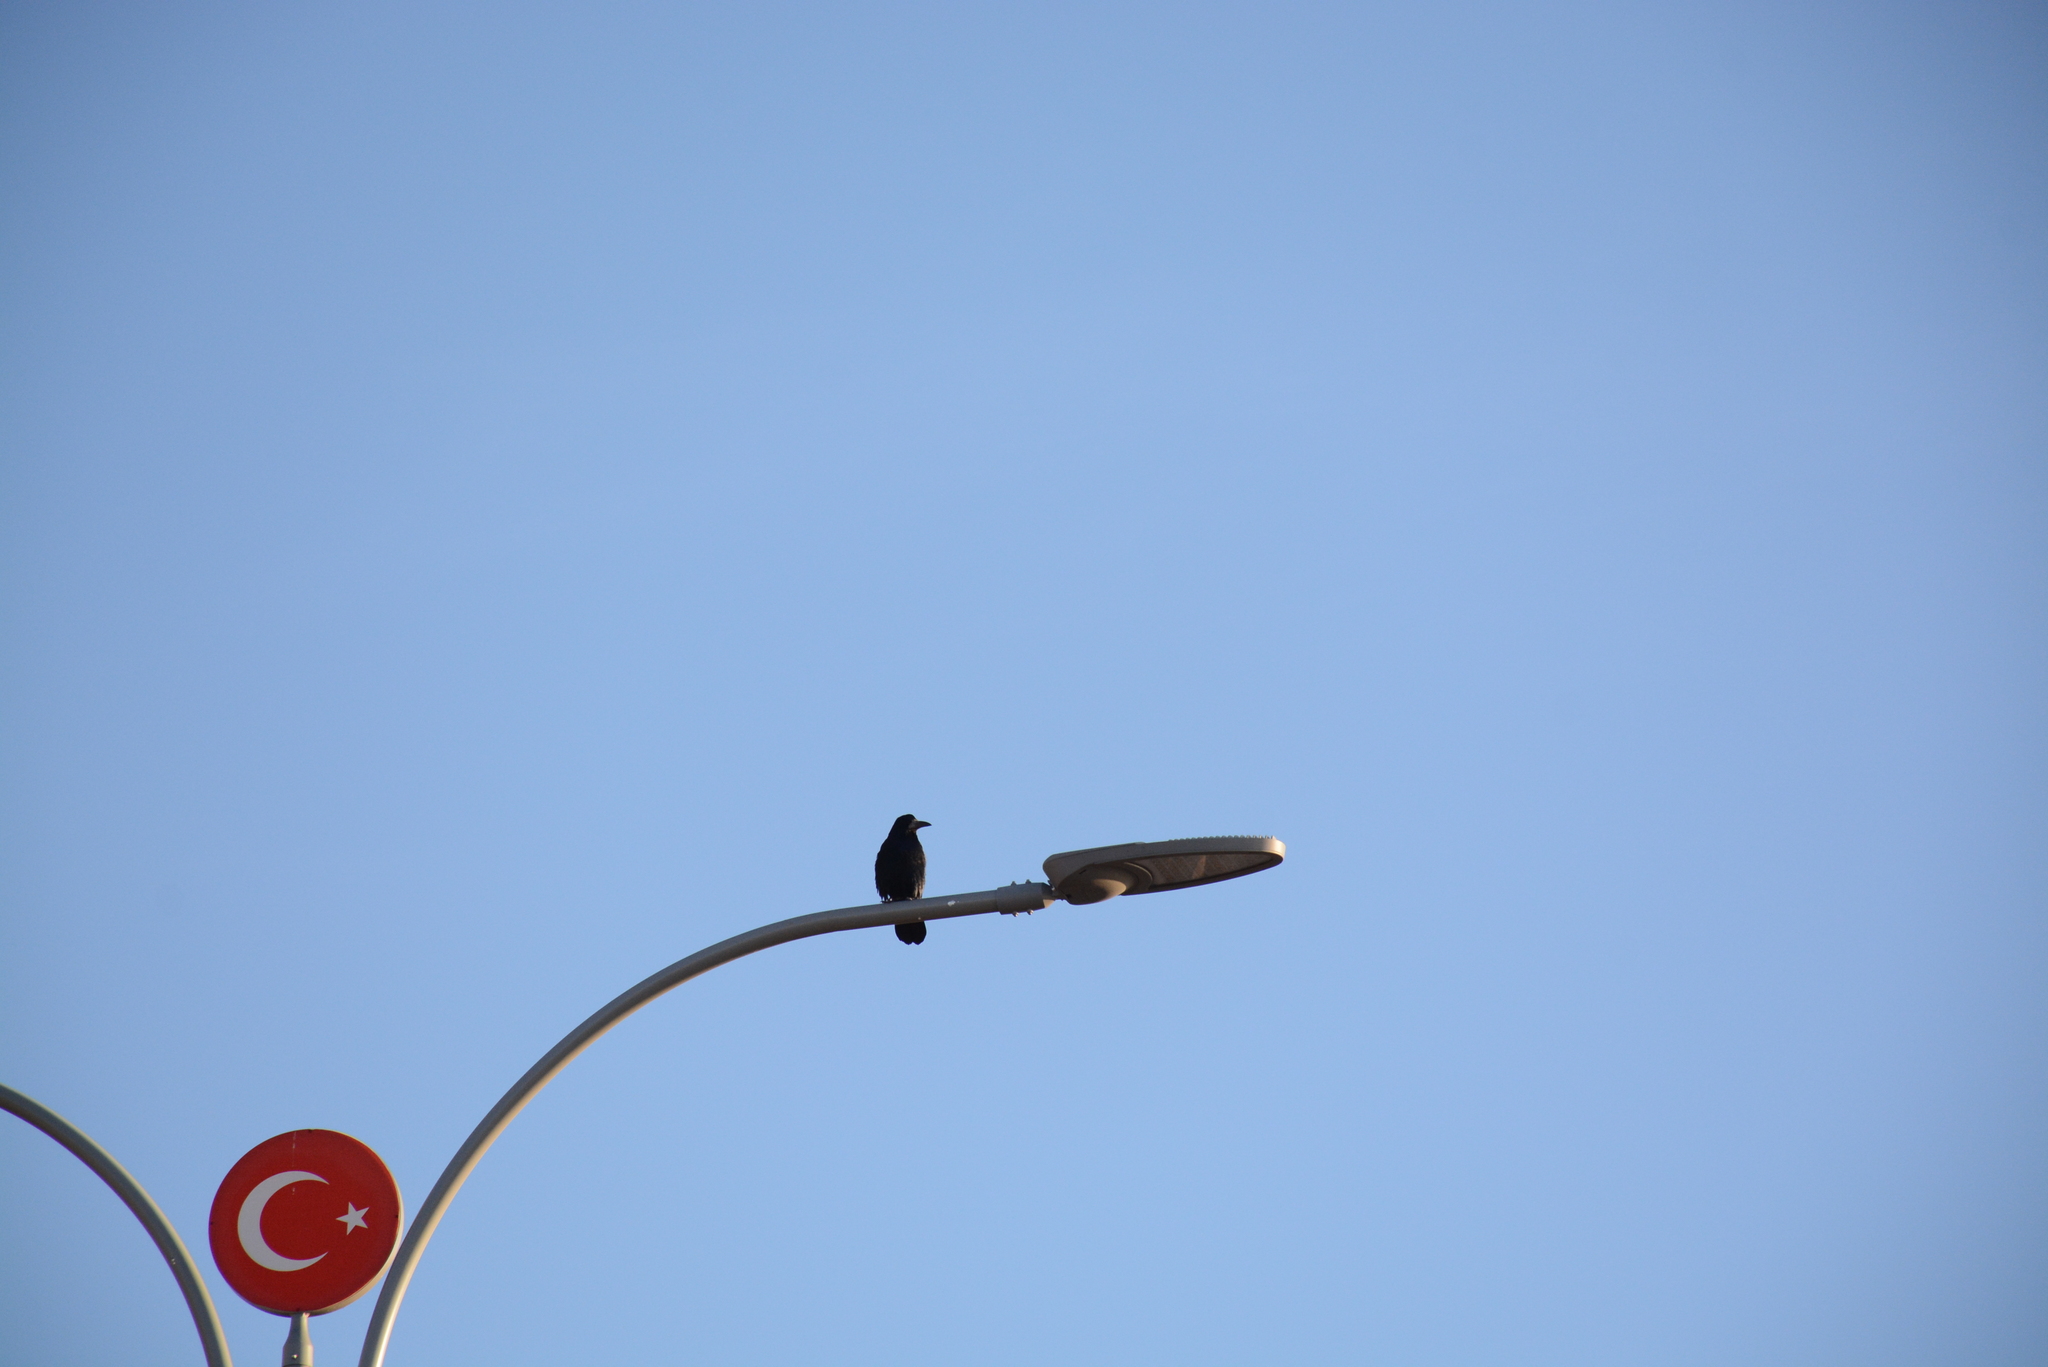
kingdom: Animalia
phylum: Chordata
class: Aves
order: Passeriformes
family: Corvidae
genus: Corvus
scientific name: Corvus frugilegus
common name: Rook
